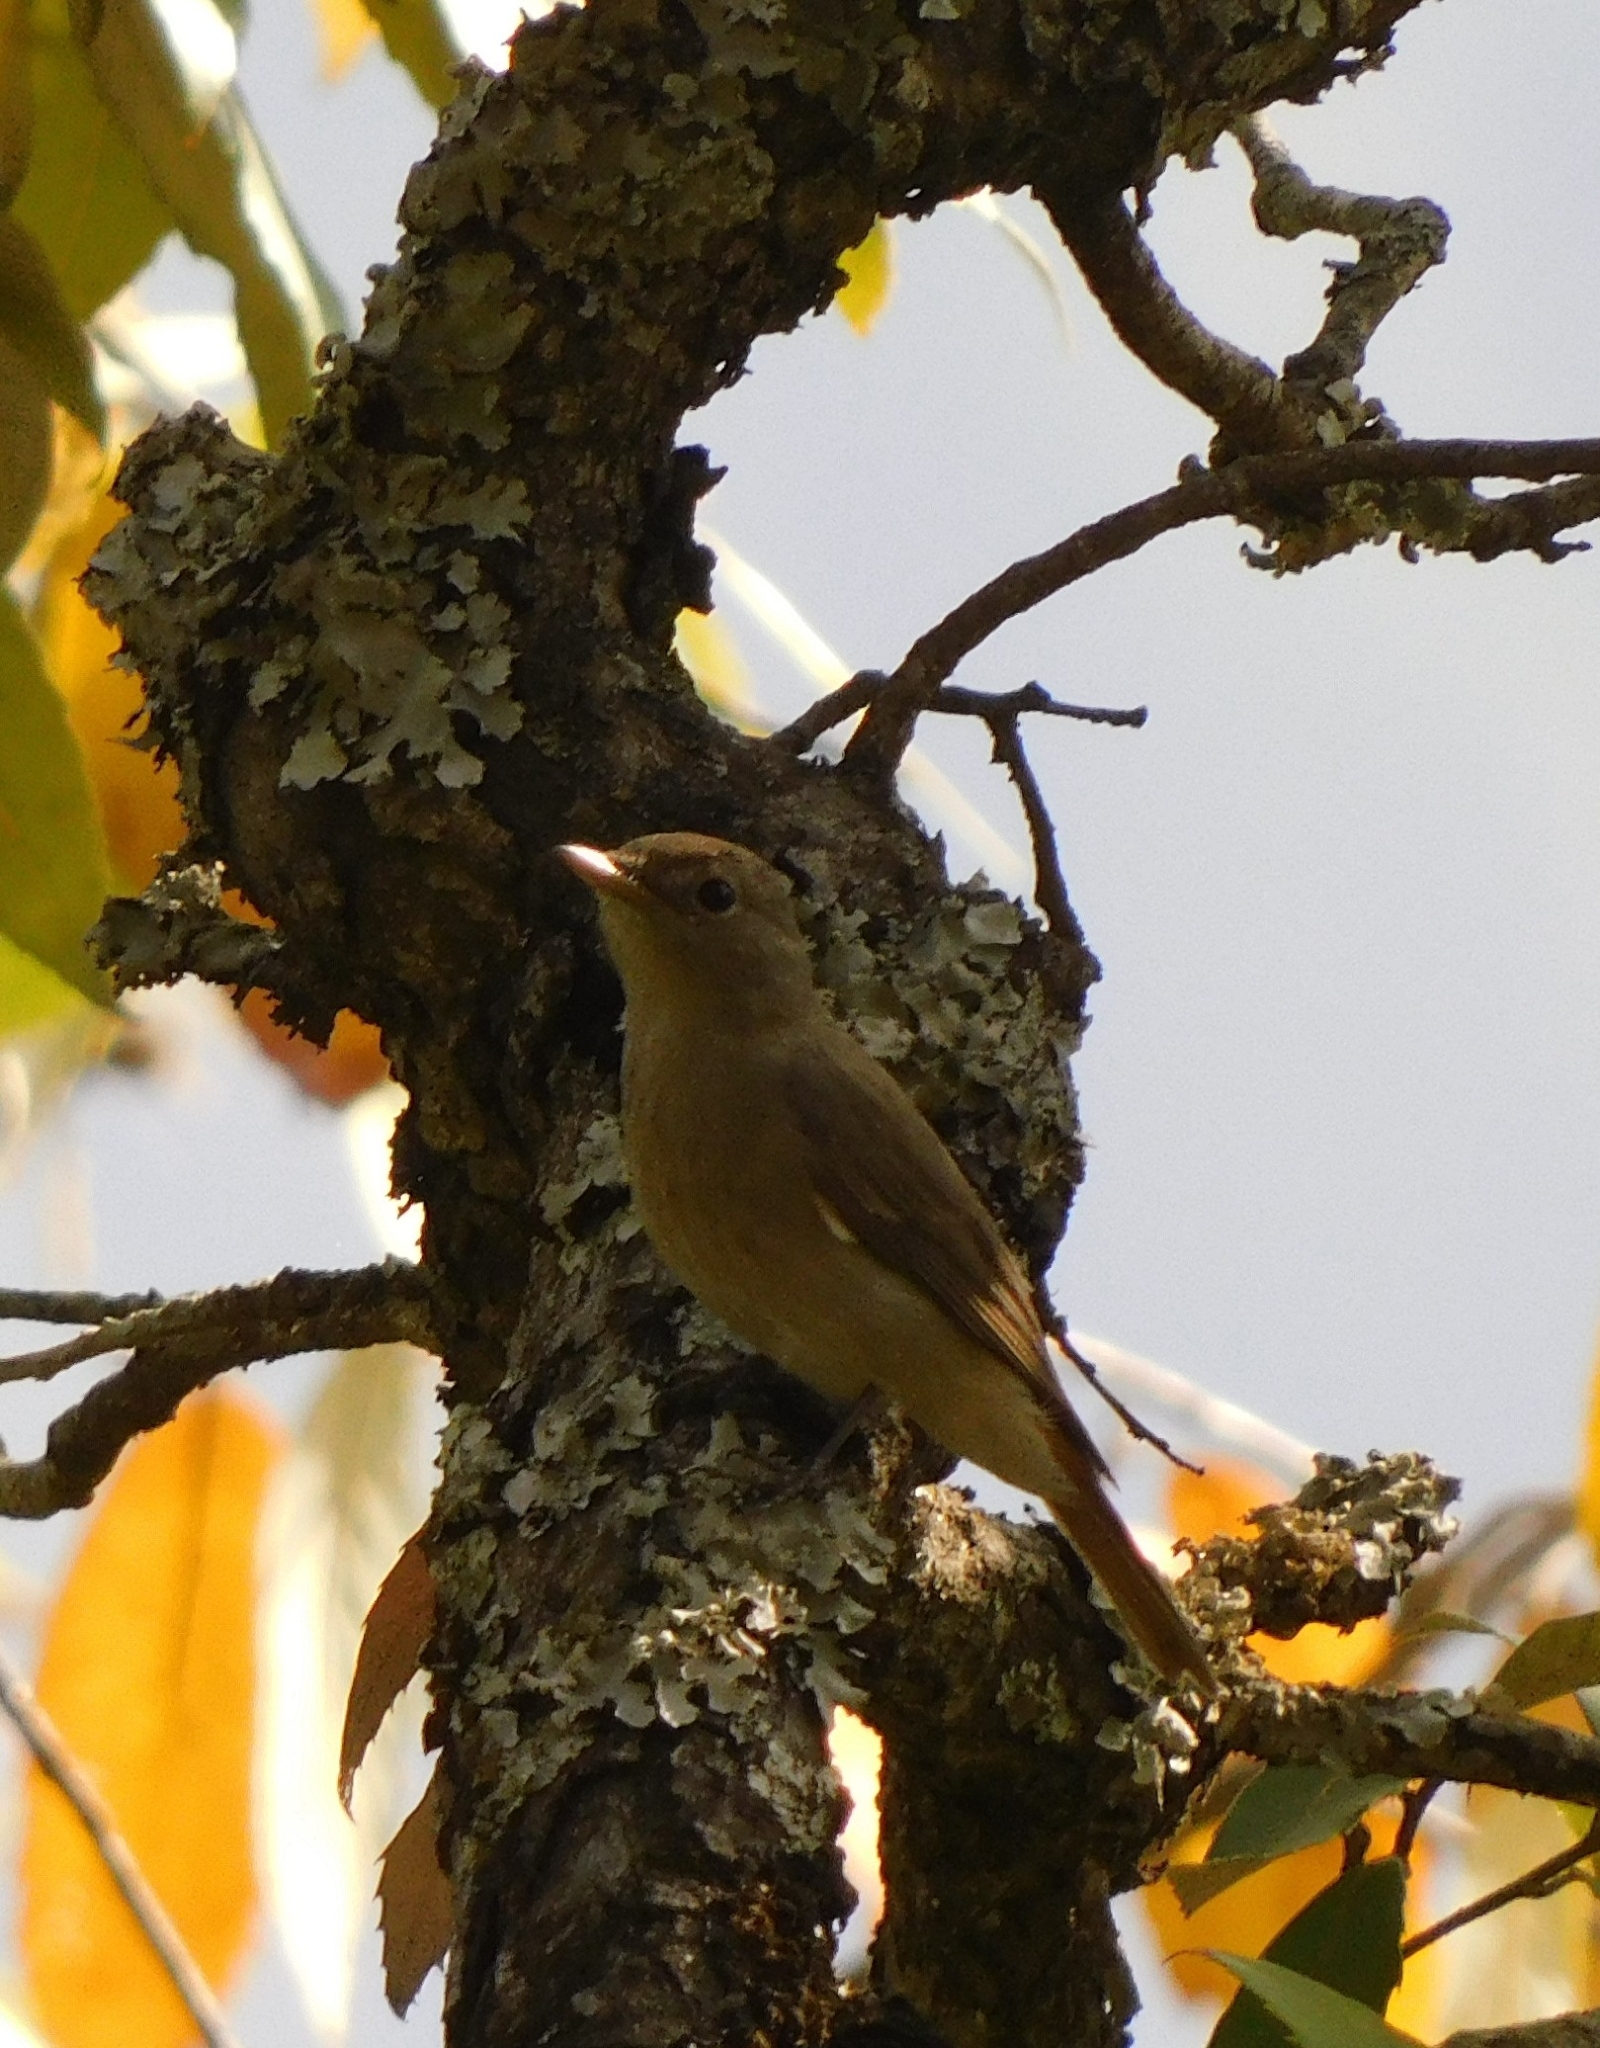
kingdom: Animalia
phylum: Chordata
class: Aves
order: Passeriformes
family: Muscicapidae
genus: Muscicapa
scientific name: Muscicapa ruficauda
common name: Rusty-tailed flycatcher
